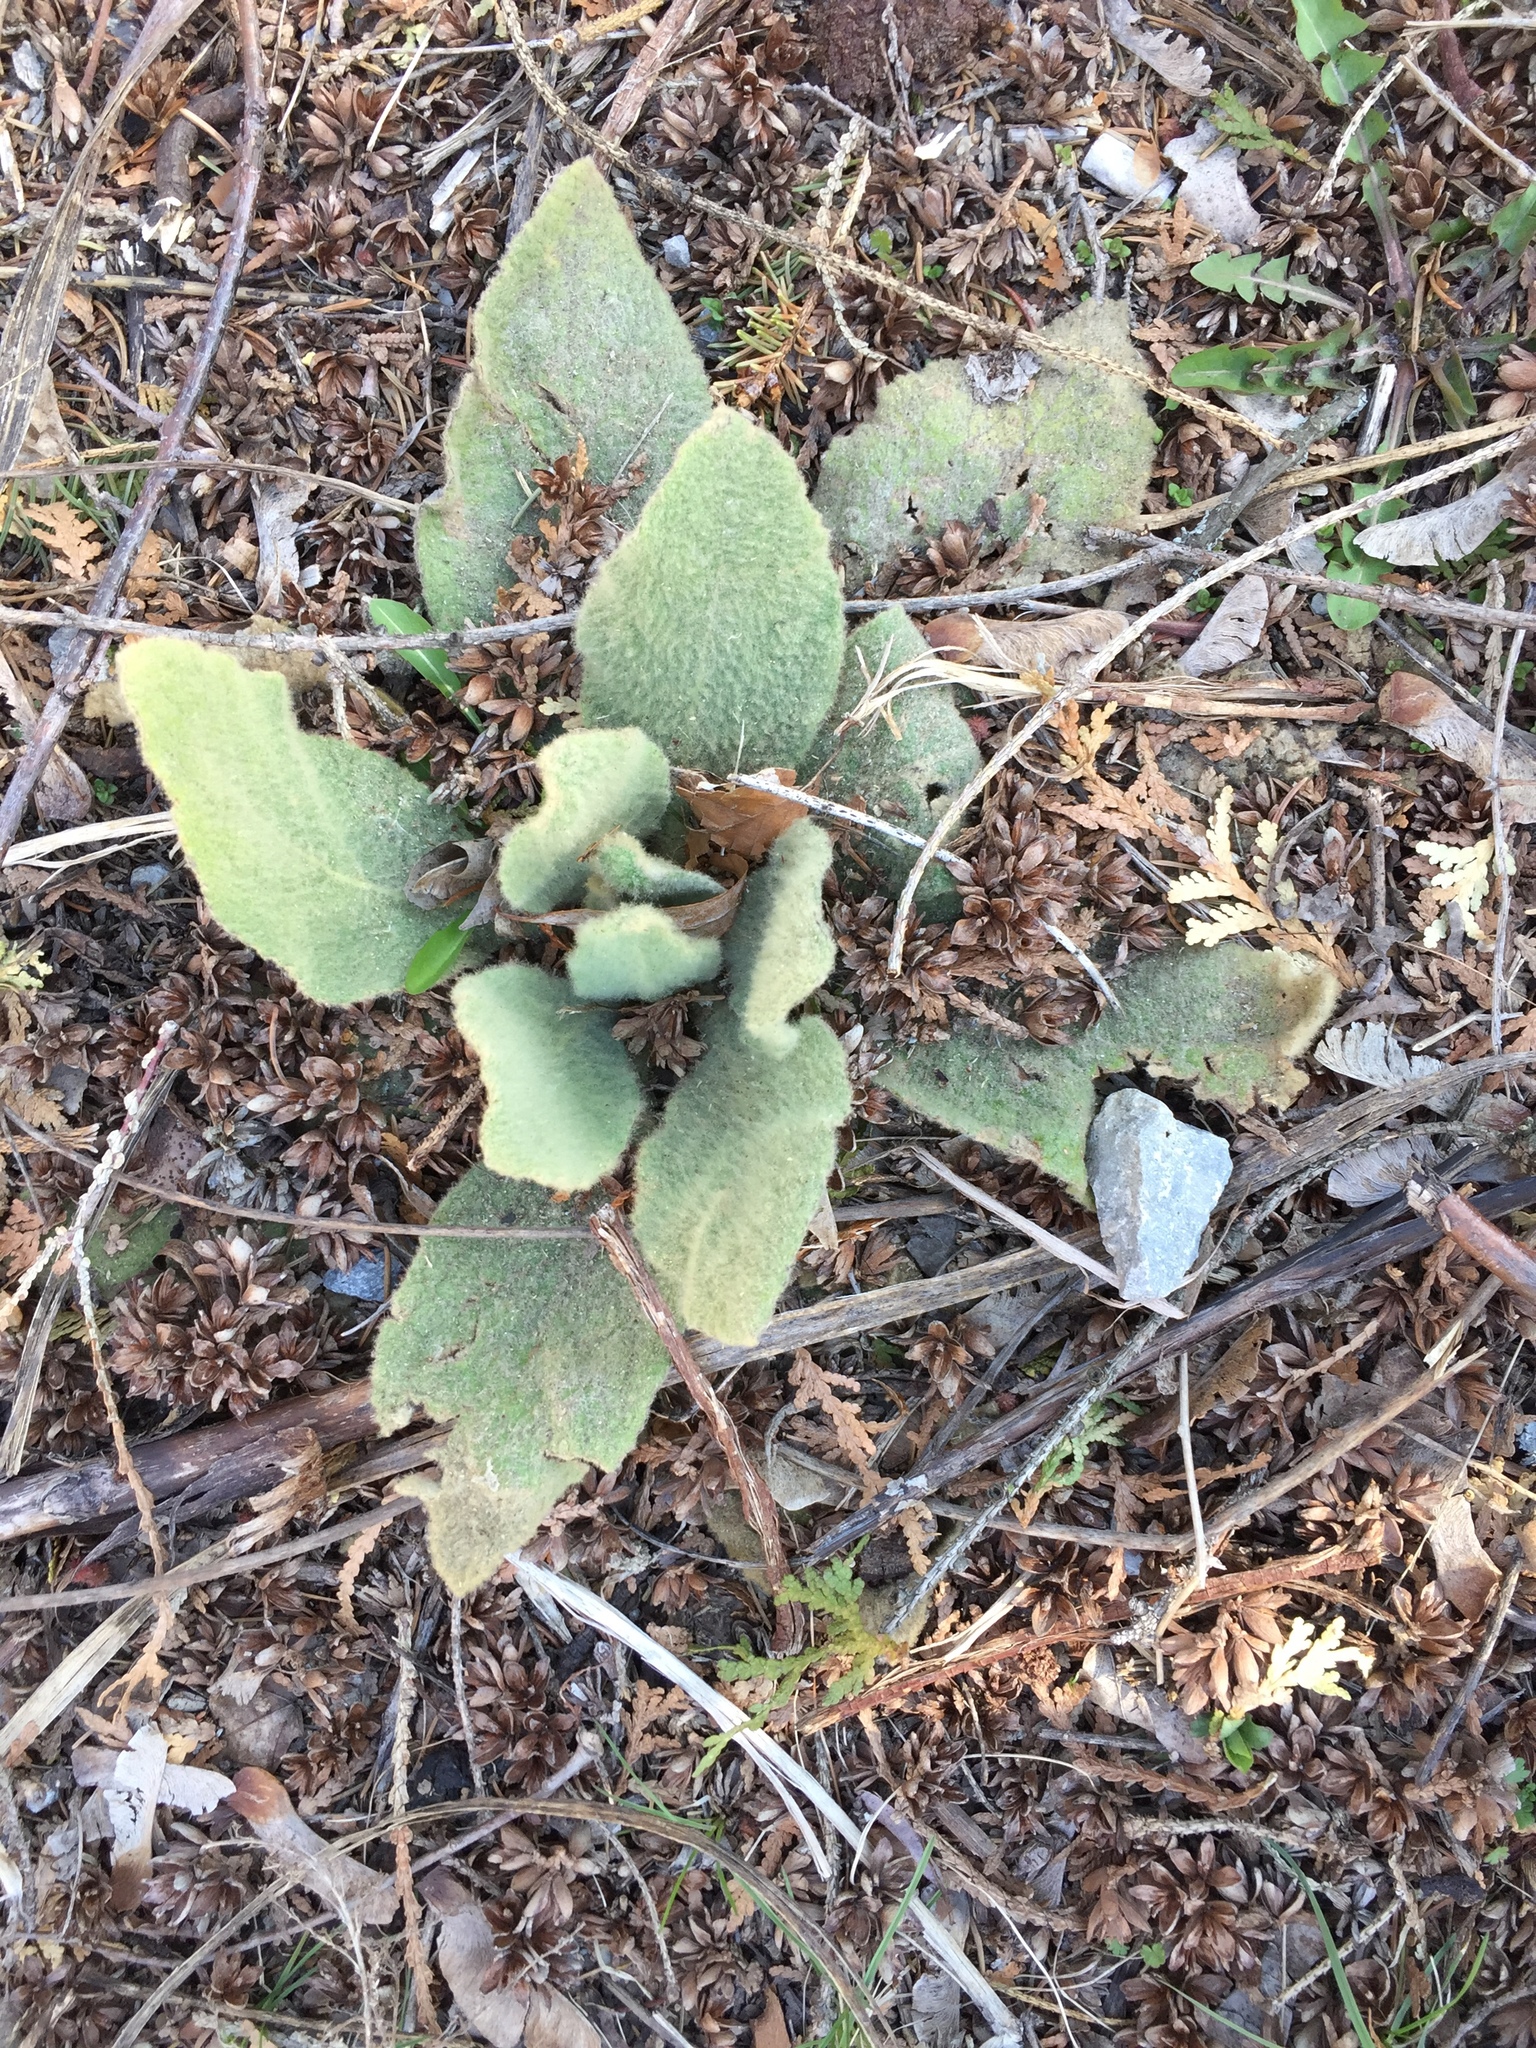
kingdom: Plantae
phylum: Tracheophyta
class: Magnoliopsida
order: Lamiales
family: Scrophulariaceae
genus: Verbascum
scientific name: Verbascum thapsus
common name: Common mullein
